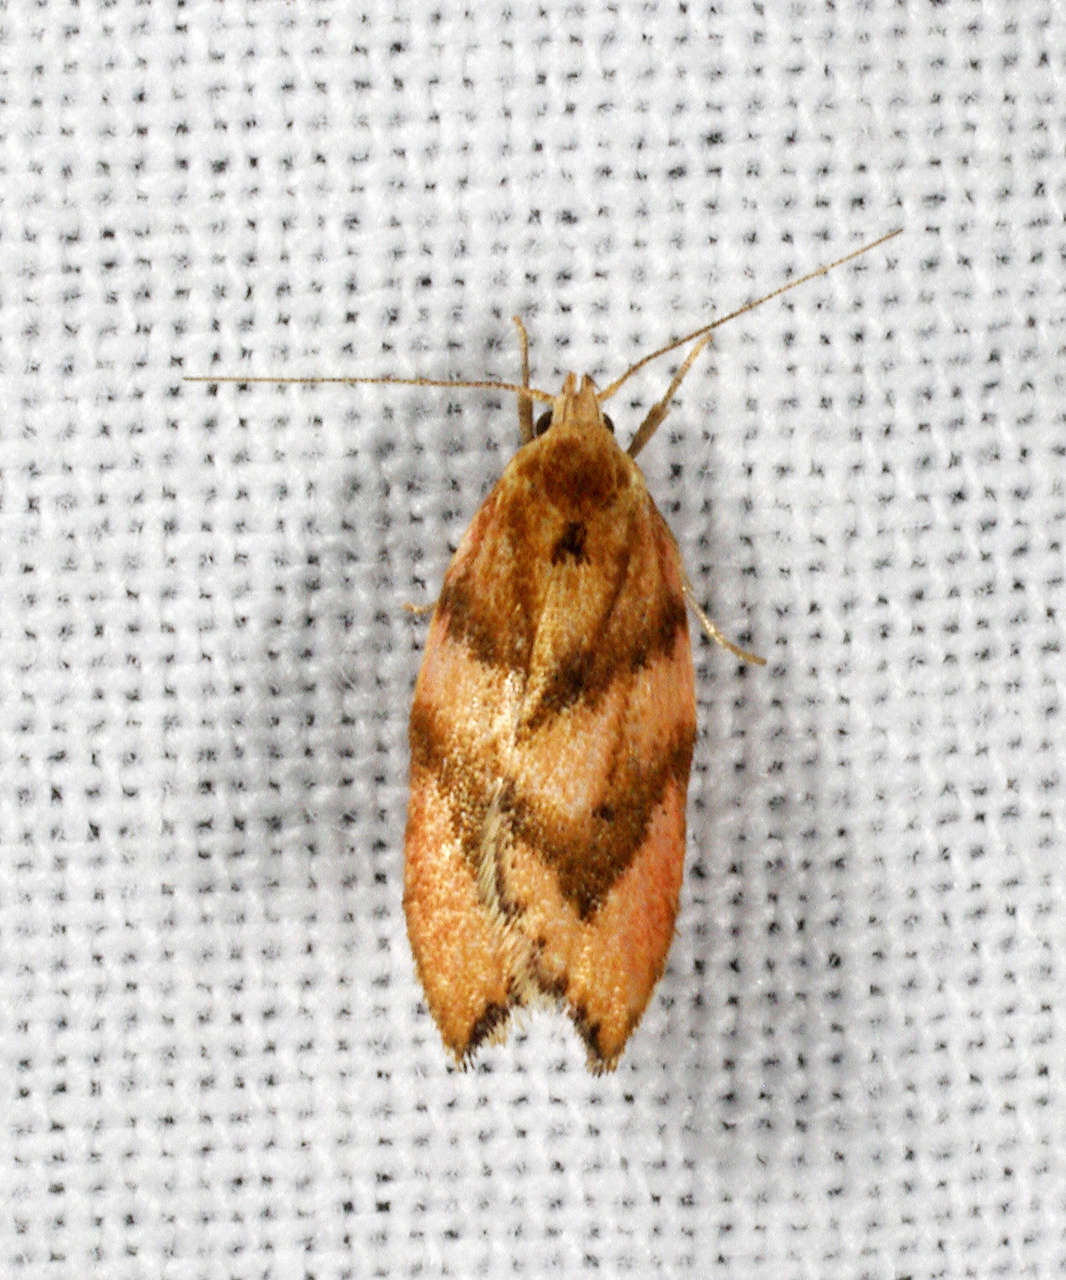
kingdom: Animalia
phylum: Arthropoda
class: Insecta
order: Lepidoptera
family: Oecophoridae
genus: Deigmoesta
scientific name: Deigmoesta
